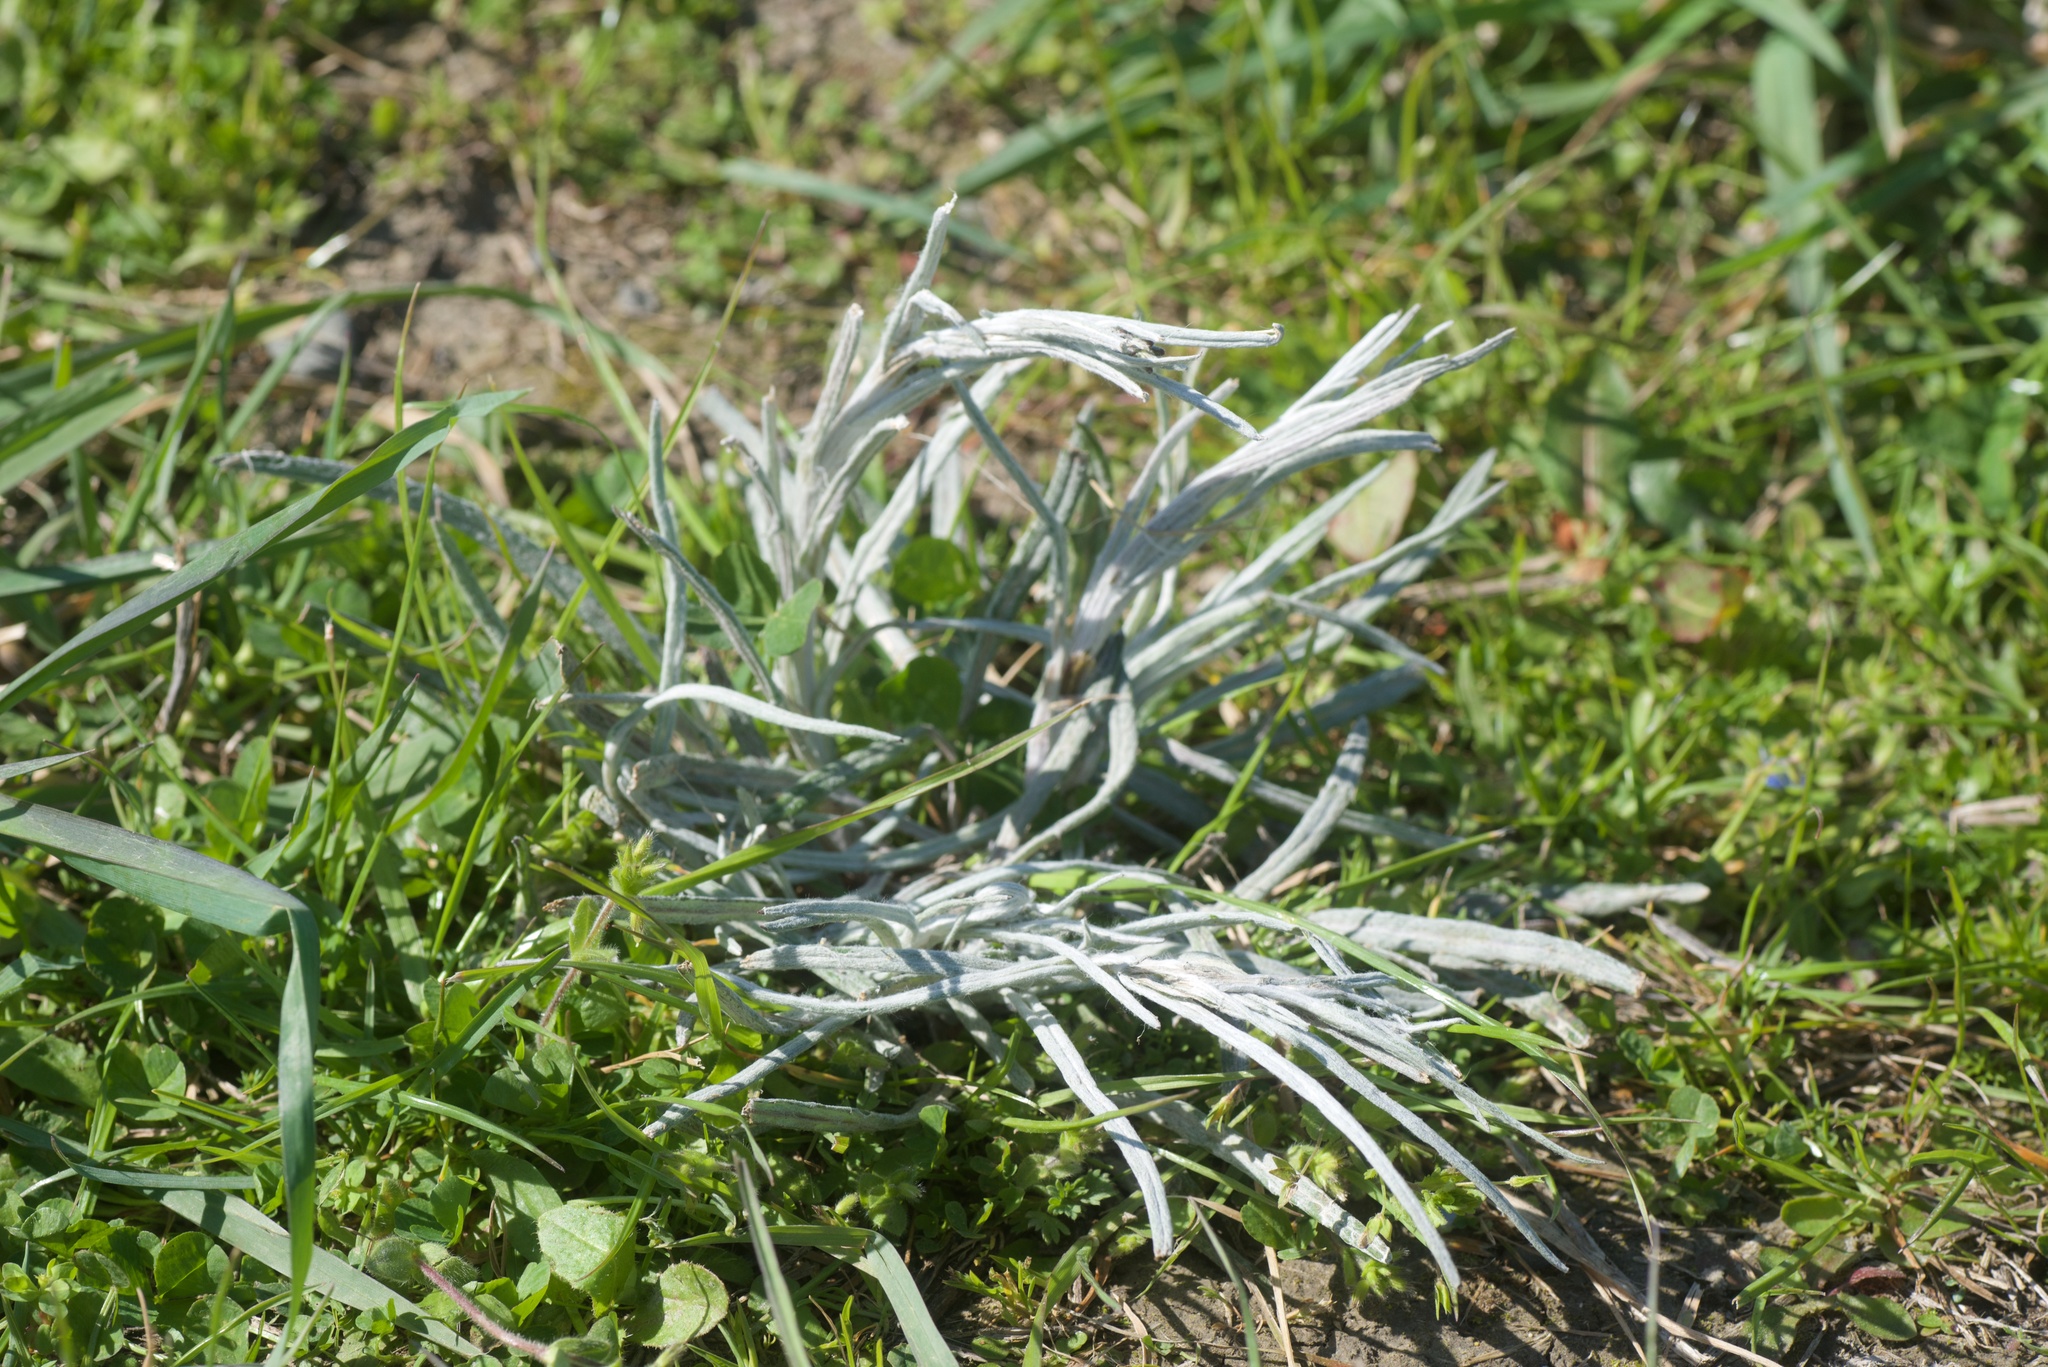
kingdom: Plantae
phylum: Tracheophyta
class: Magnoliopsida
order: Asterales
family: Asteraceae
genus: Senecio
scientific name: Senecio quadridentatus
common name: Cotton fireweed
